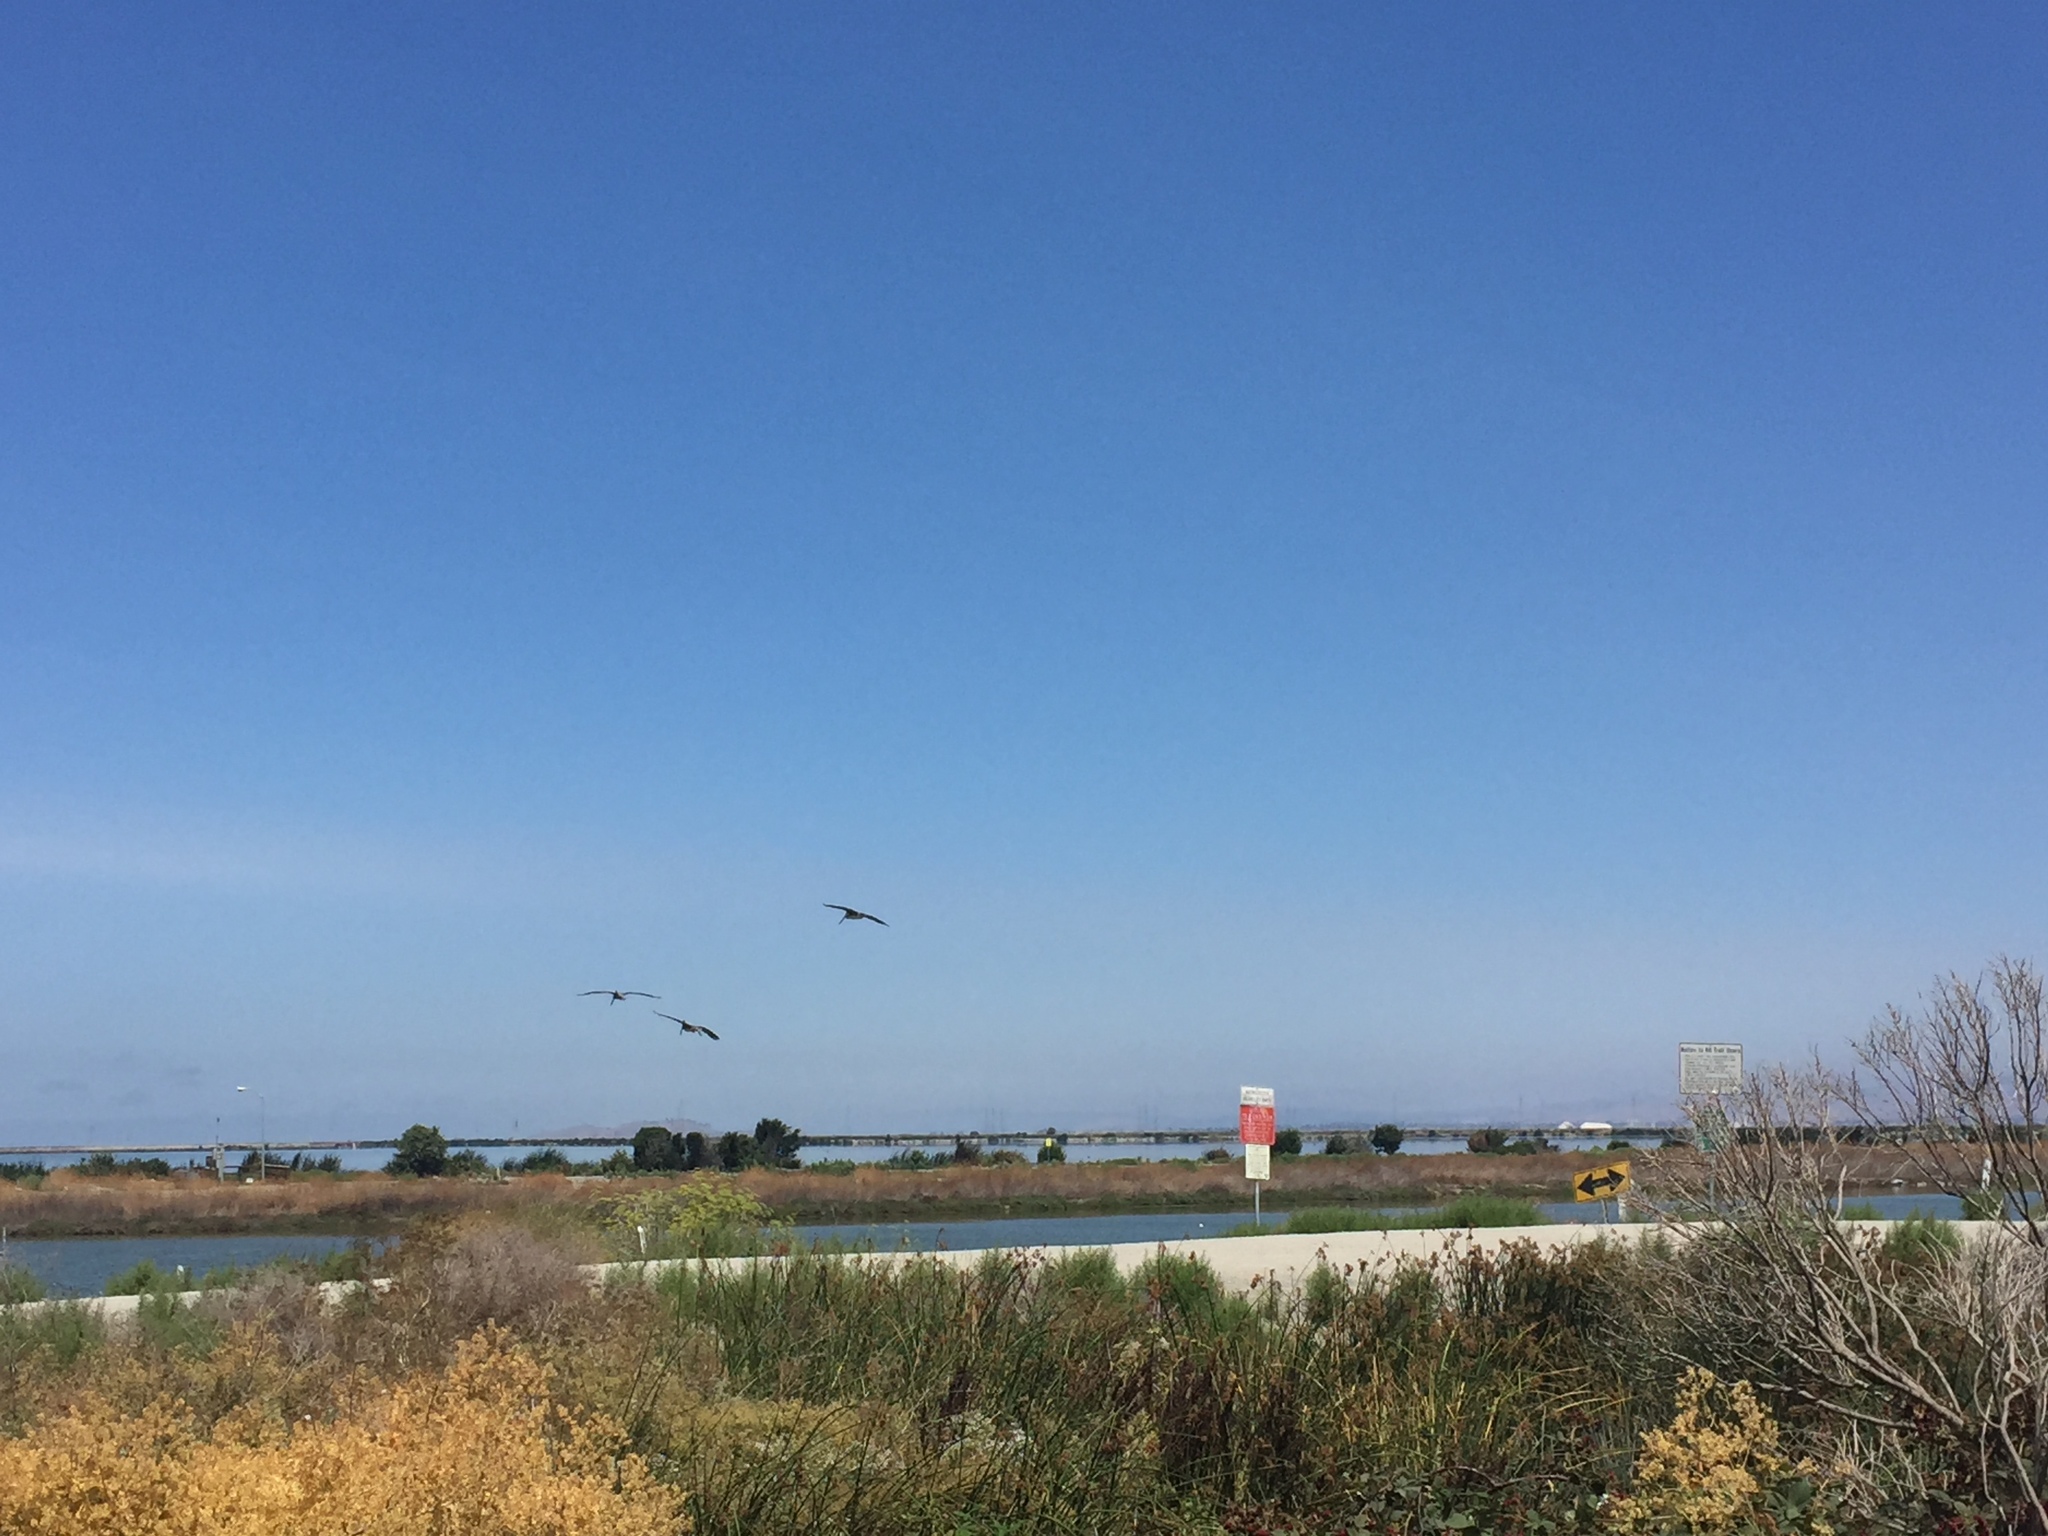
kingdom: Animalia
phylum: Chordata
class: Aves
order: Pelecaniformes
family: Pelecanidae
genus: Pelecanus
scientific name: Pelecanus occidentalis
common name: Brown pelican
